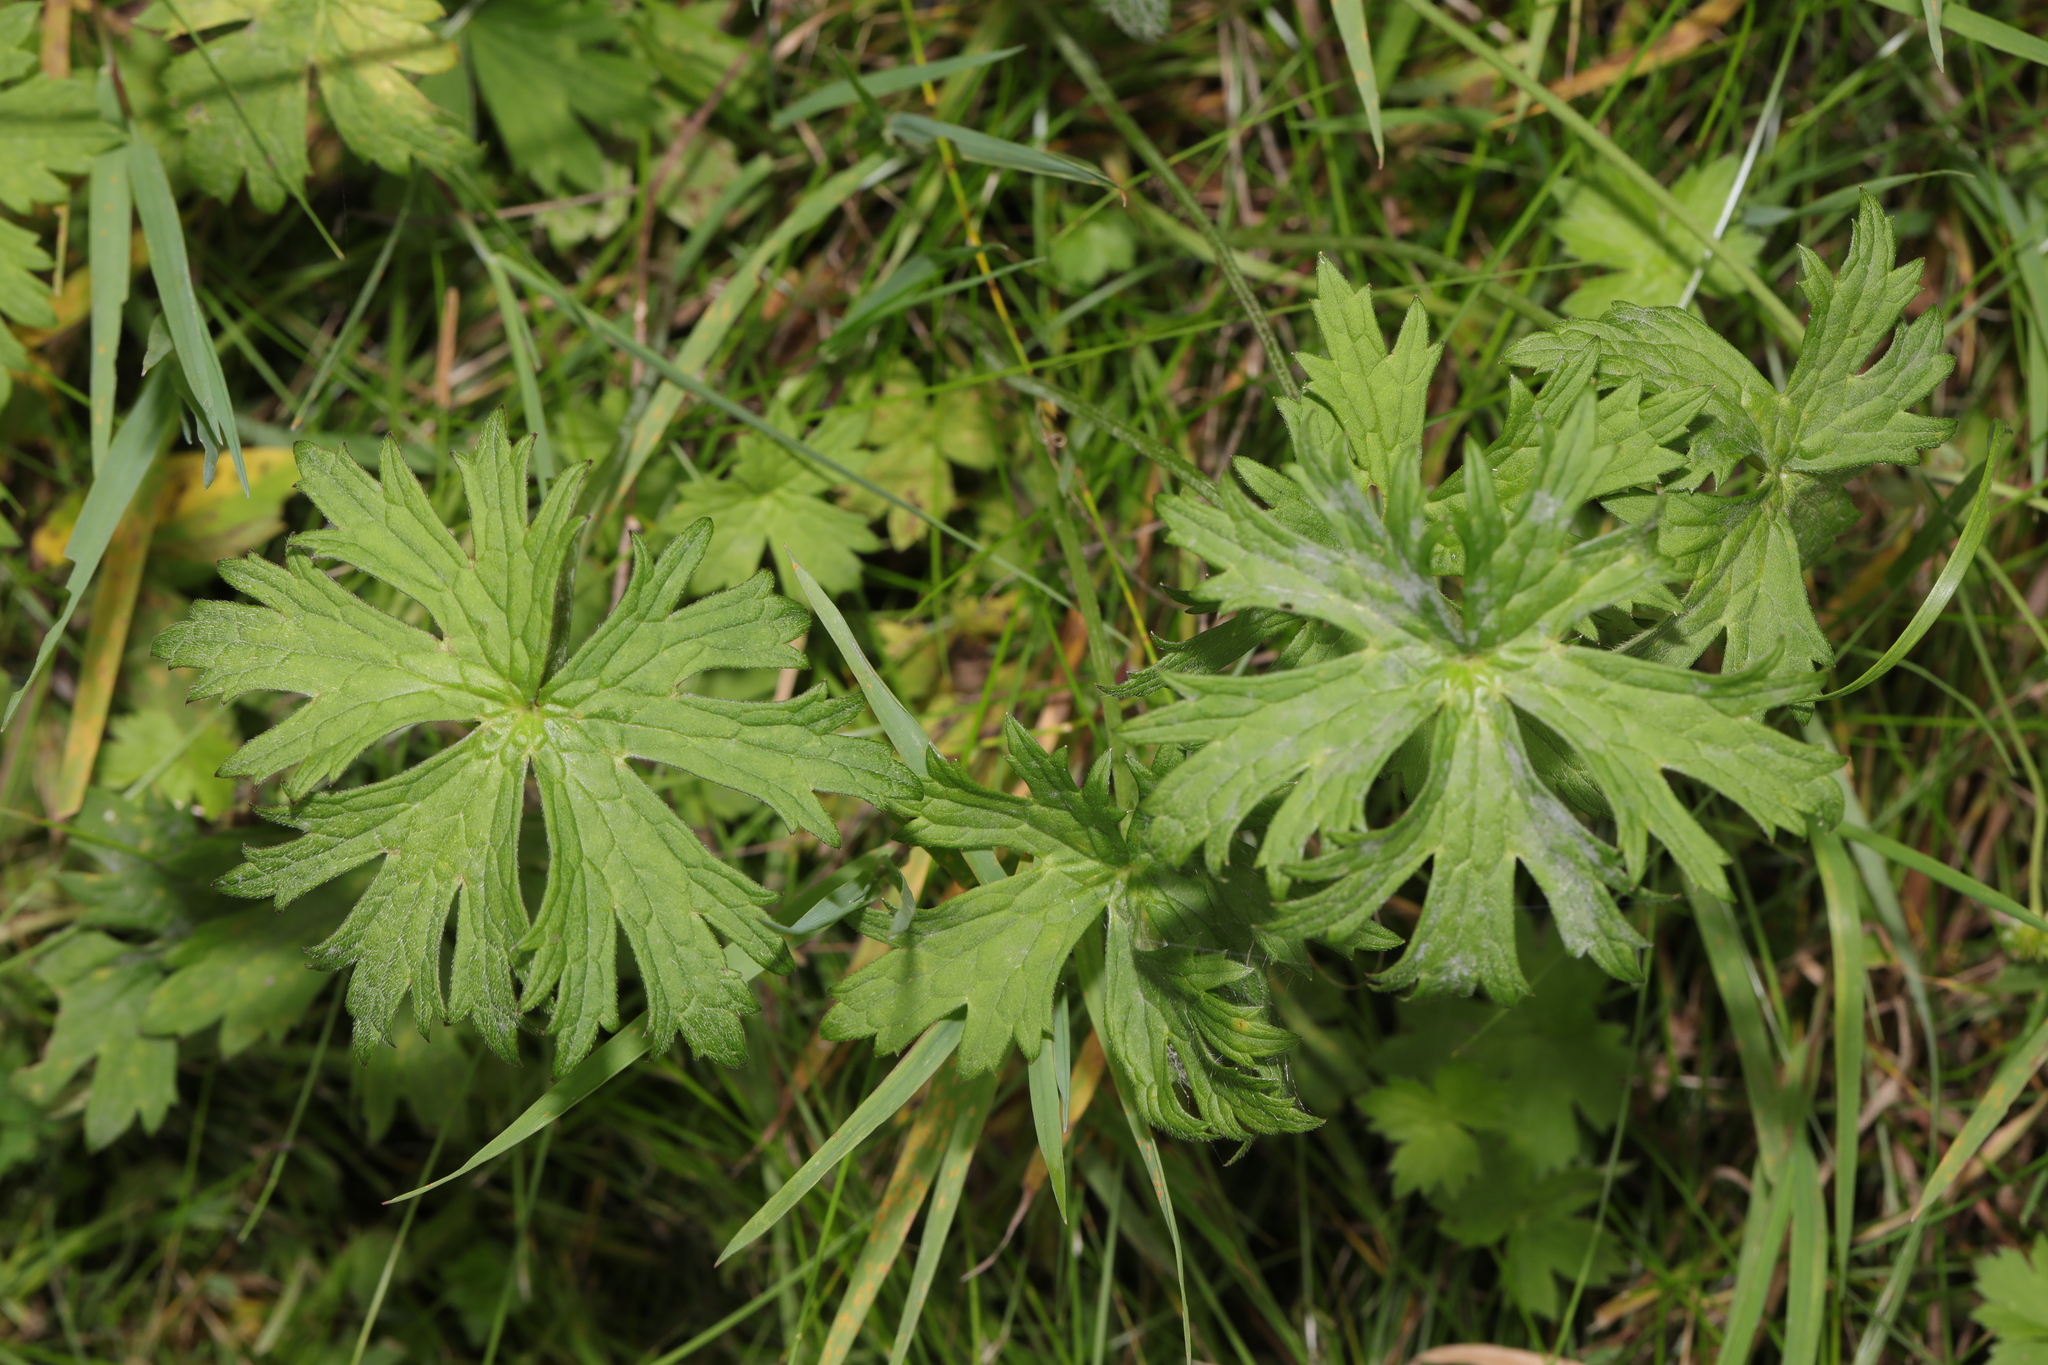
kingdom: Plantae
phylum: Tracheophyta
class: Magnoliopsida
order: Ranunculales
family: Ranunculaceae
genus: Ranunculus
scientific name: Ranunculus acris
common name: Meadow buttercup
